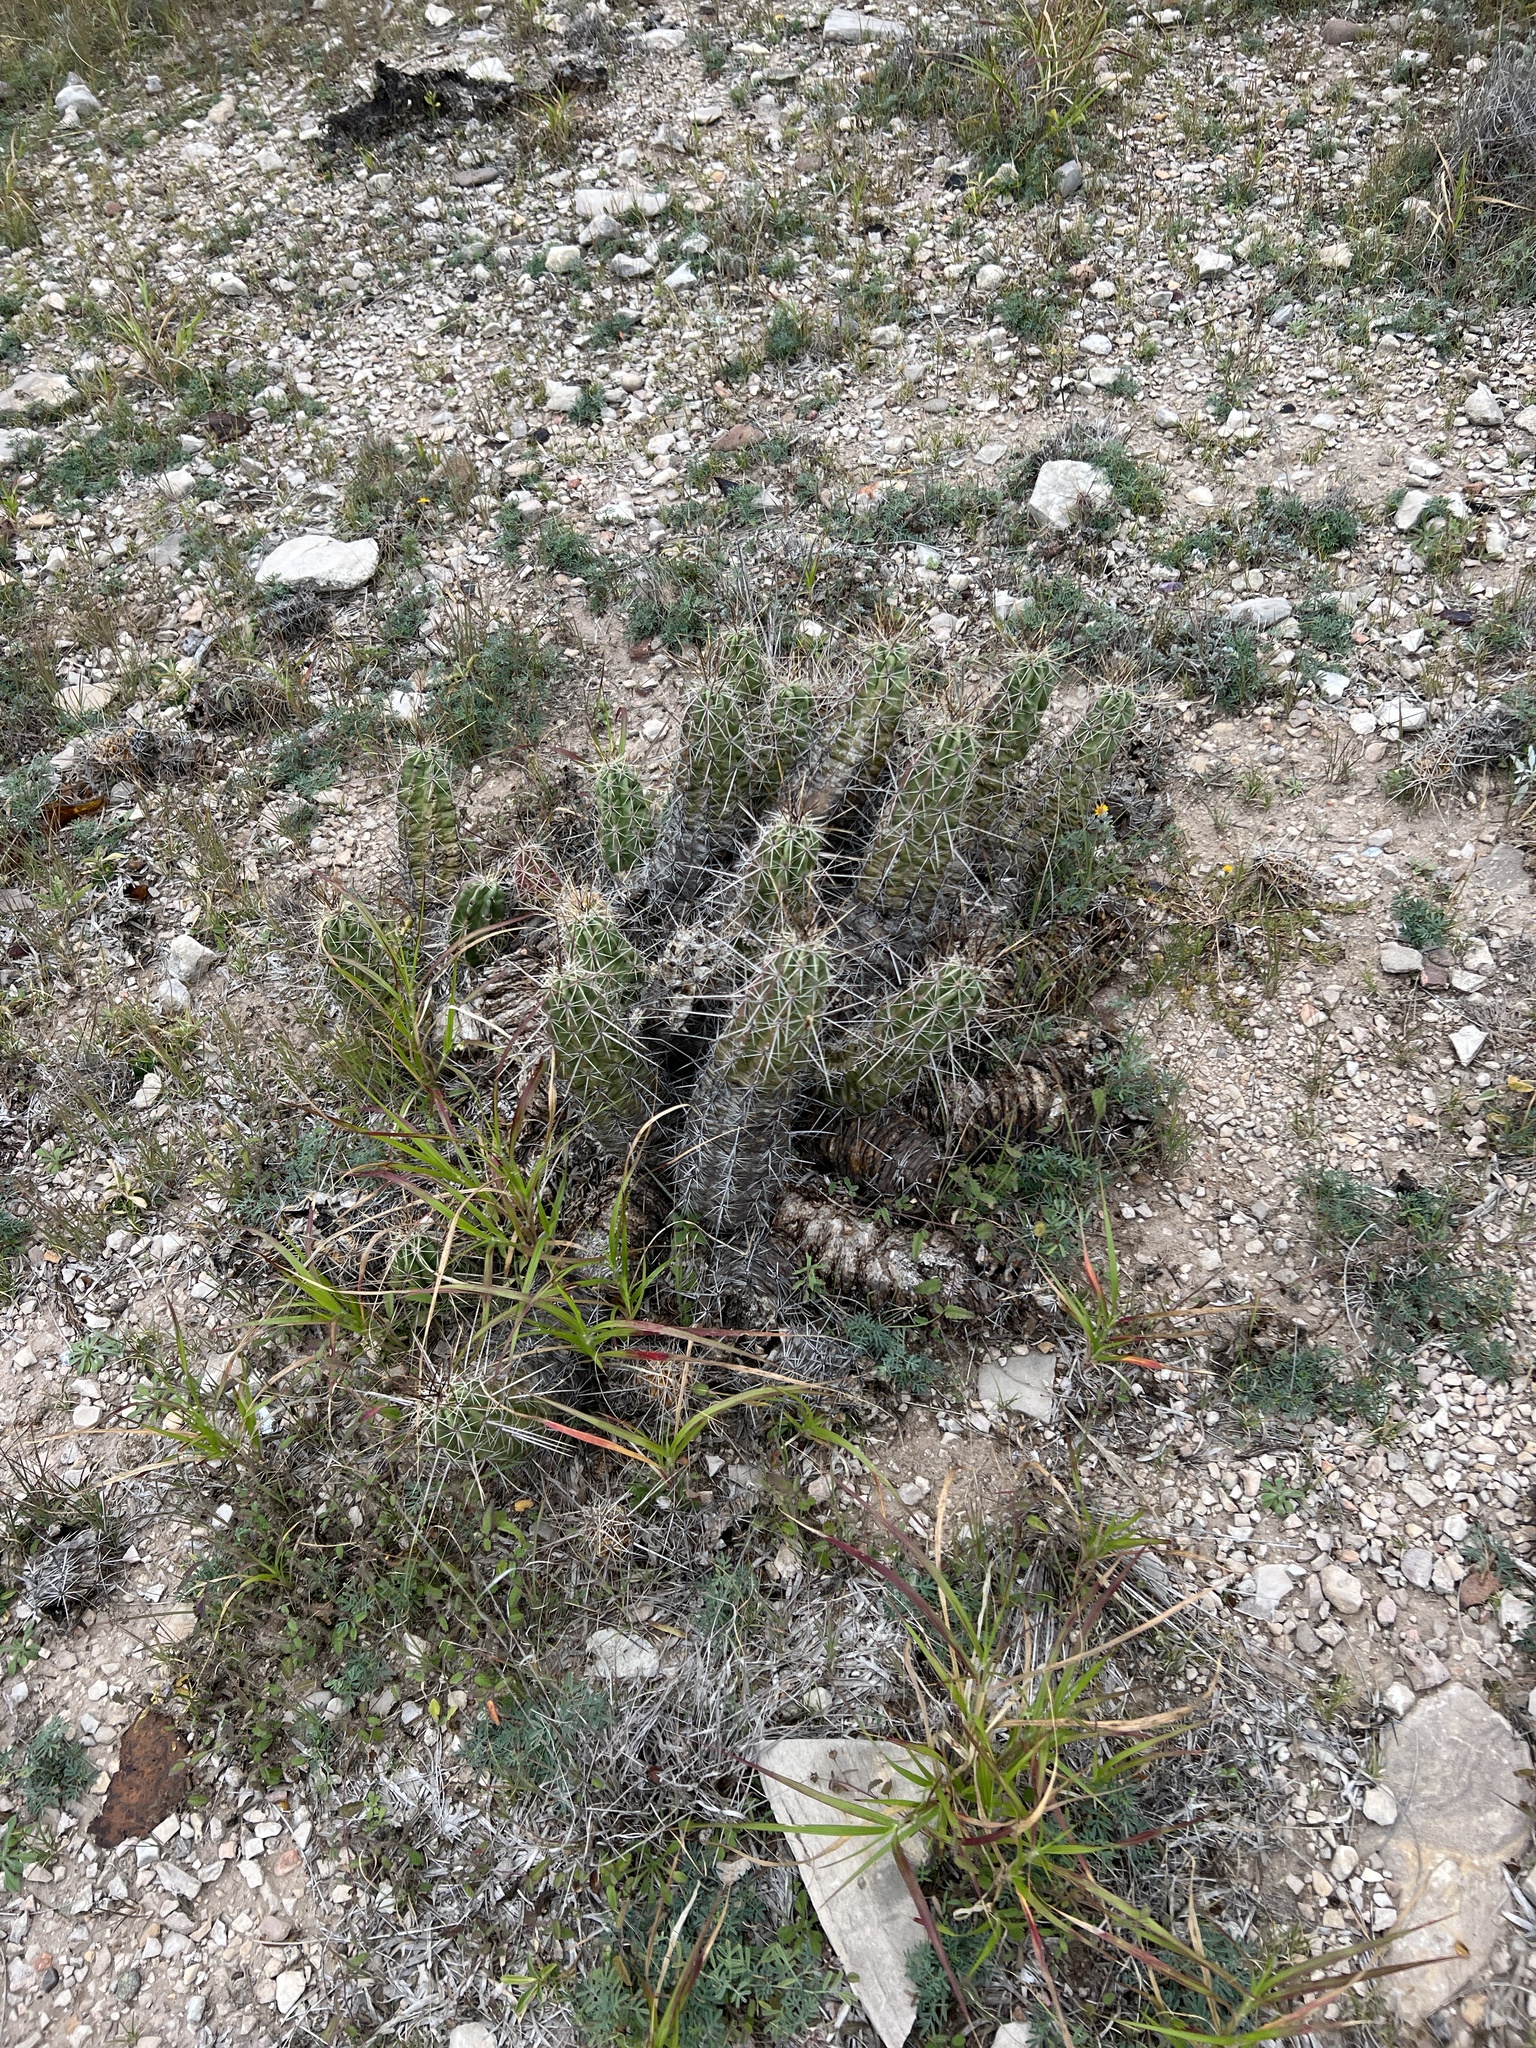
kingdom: Plantae
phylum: Tracheophyta
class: Magnoliopsida
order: Caryophyllales
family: Cactaceae
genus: Echinocereus
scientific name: Echinocereus enneacanthus
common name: Pitaya
